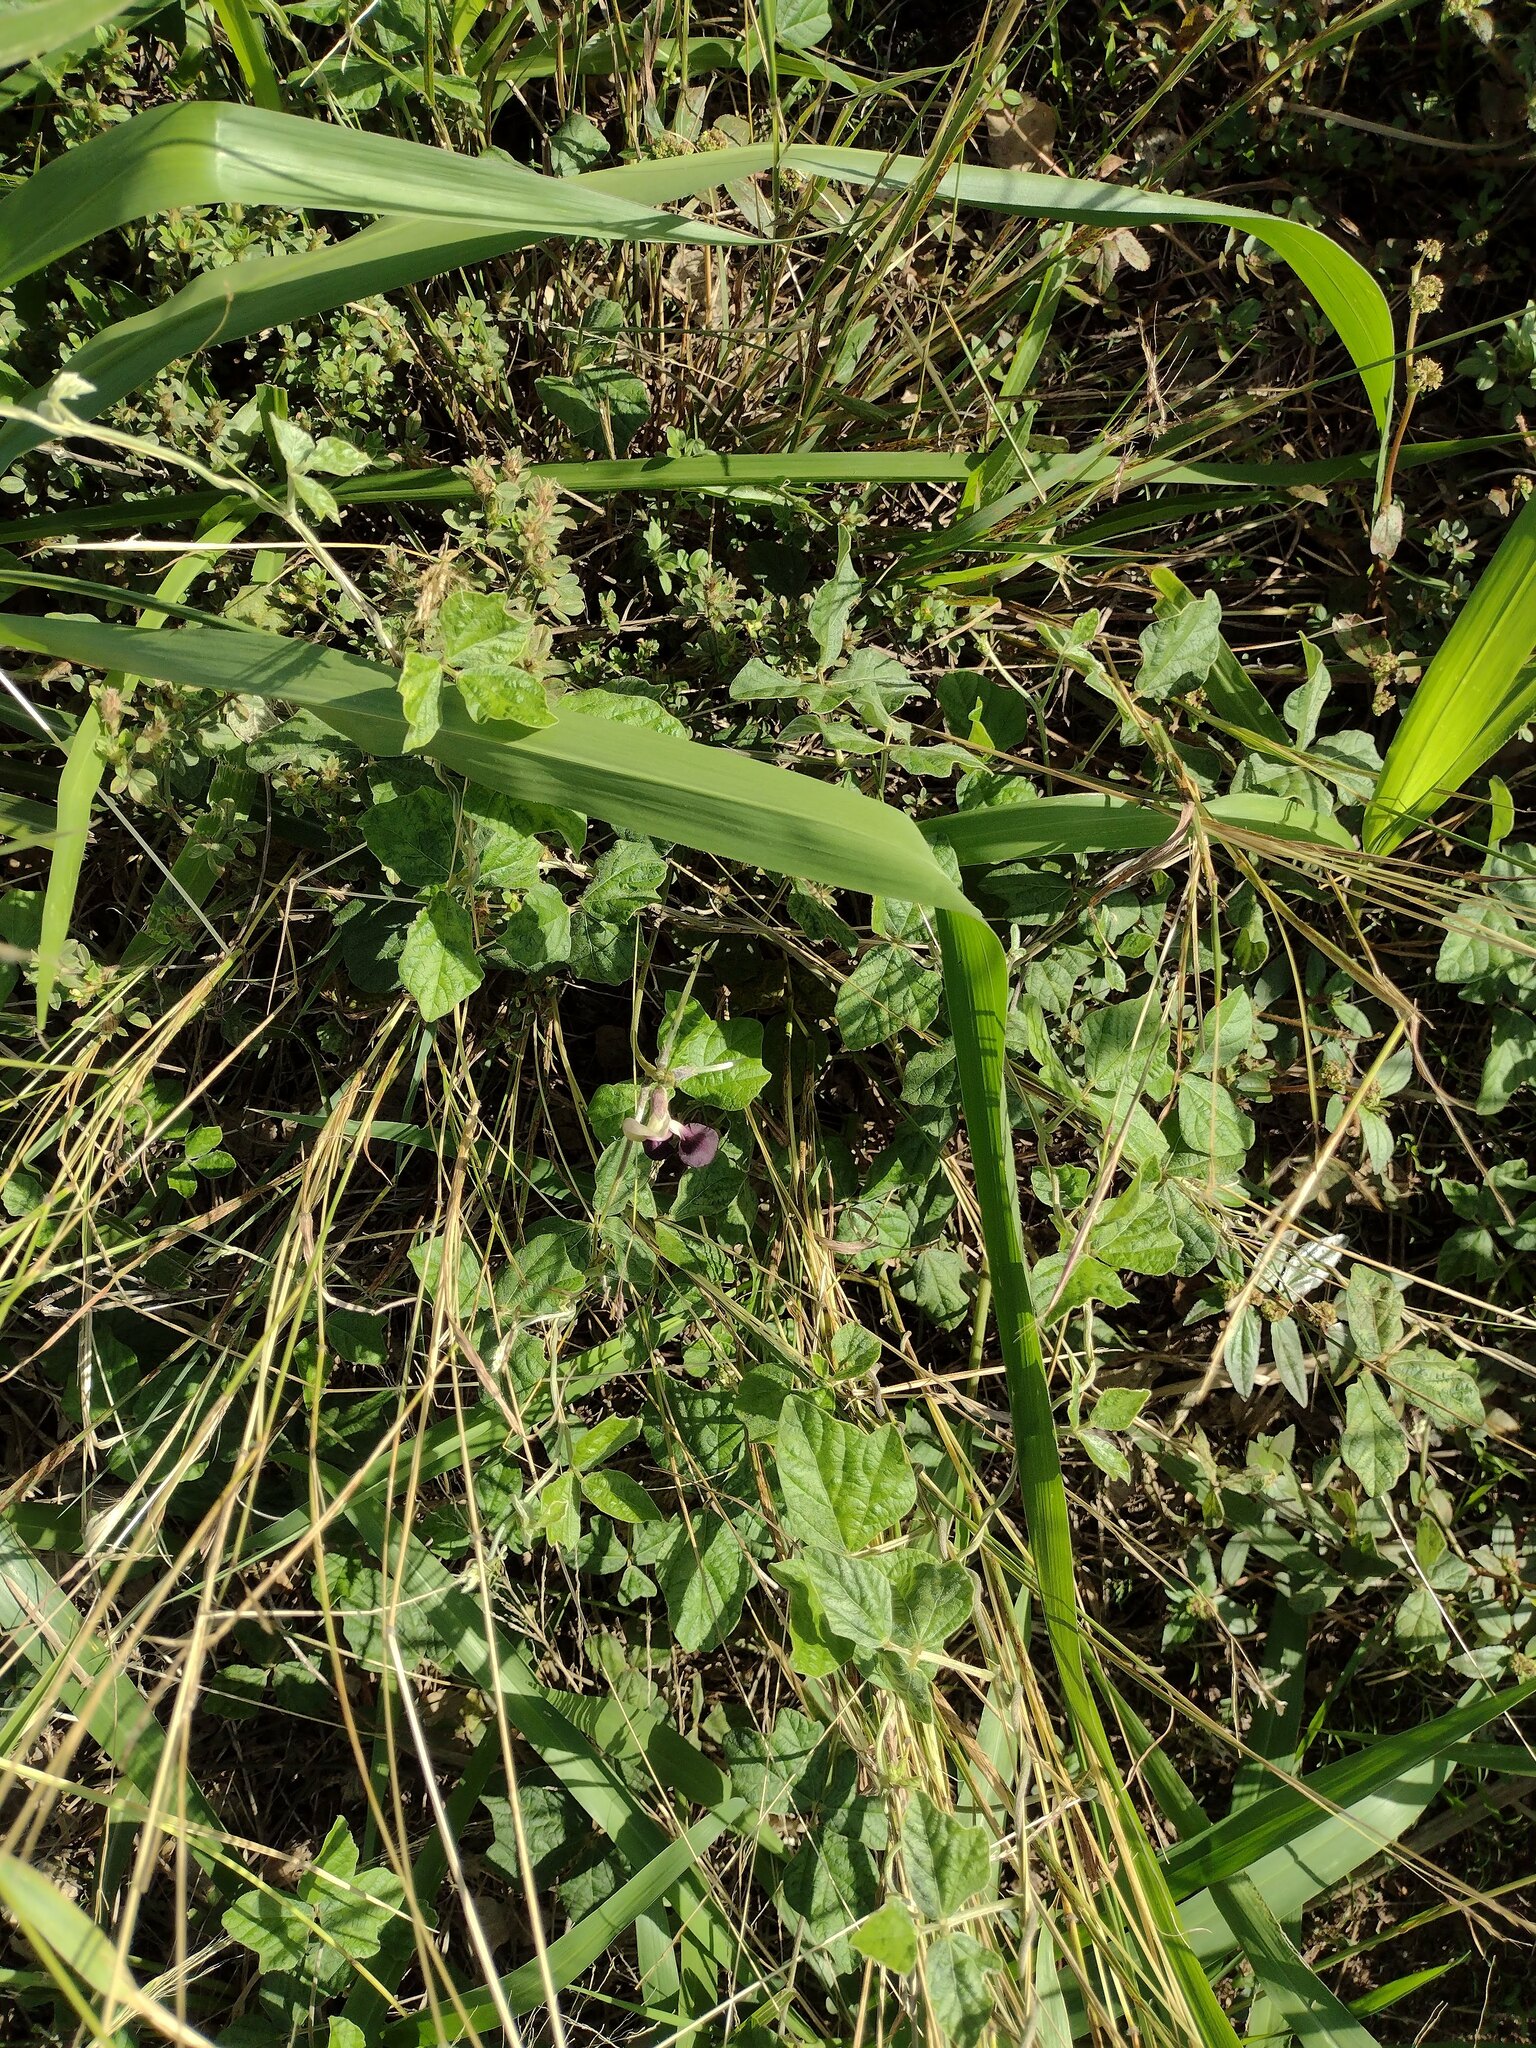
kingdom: Plantae
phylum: Tracheophyta
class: Magnoliopsida
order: Fabales
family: Fabaceae
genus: Macroptilium
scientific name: Macroptilium atropurpureum
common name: Purple bushbean
